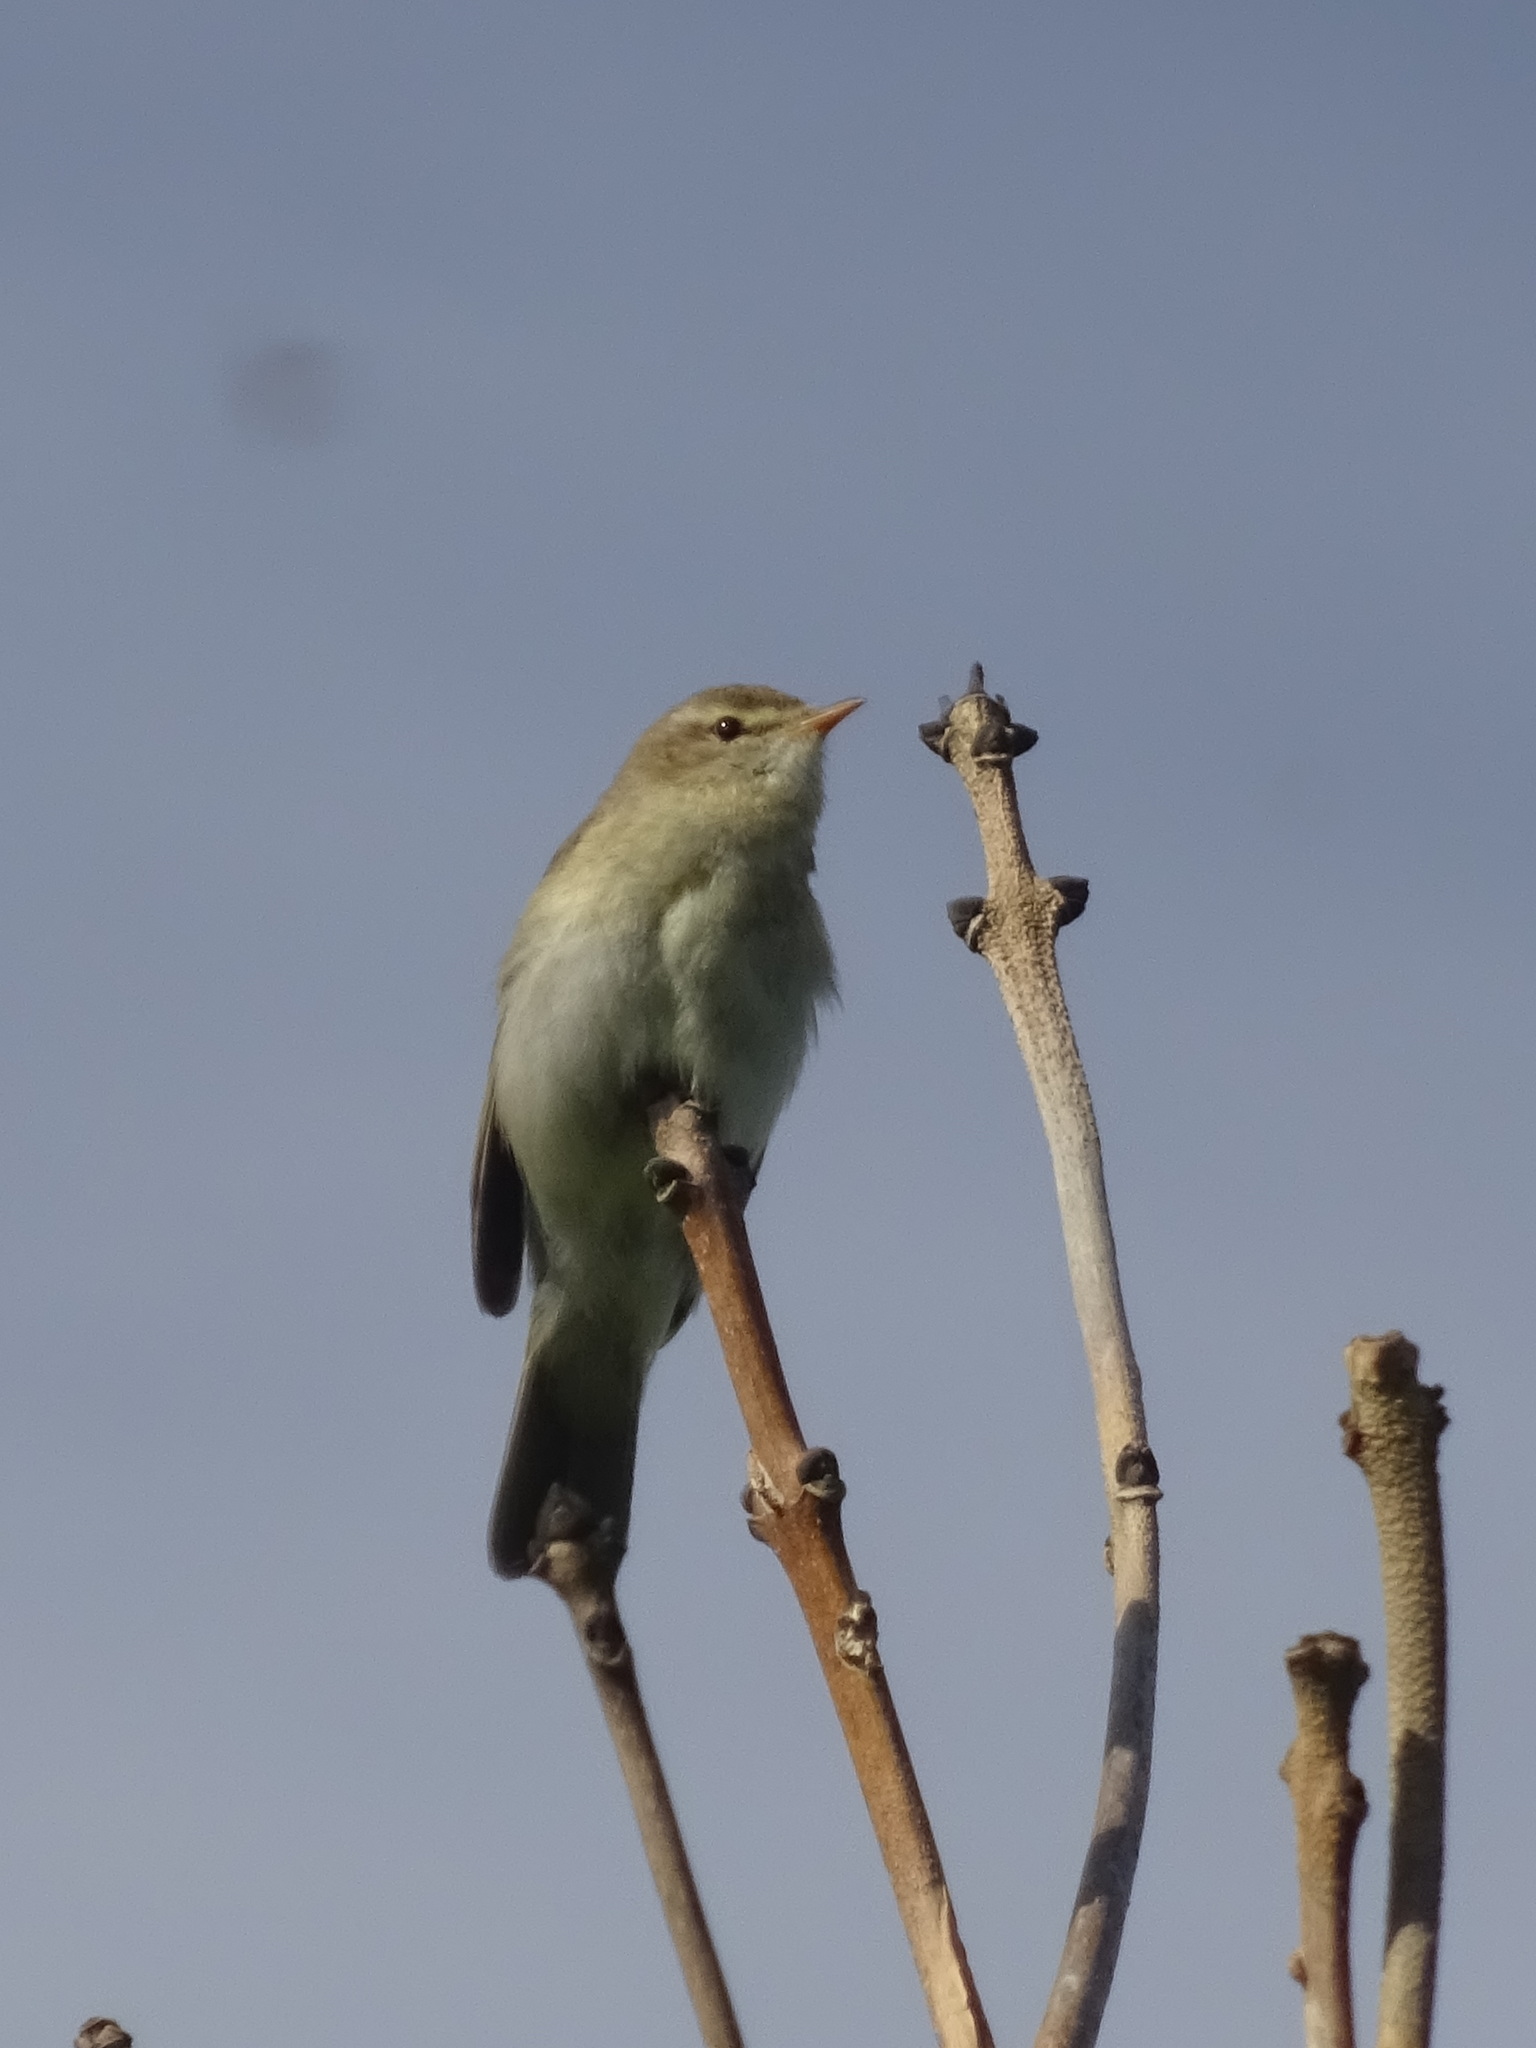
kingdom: Animalia
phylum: Chordata
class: Aves
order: Passeriformes
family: Phylloscopidae
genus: Phylloscopus
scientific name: Phylloscopus trochilus
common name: Willow warbler
